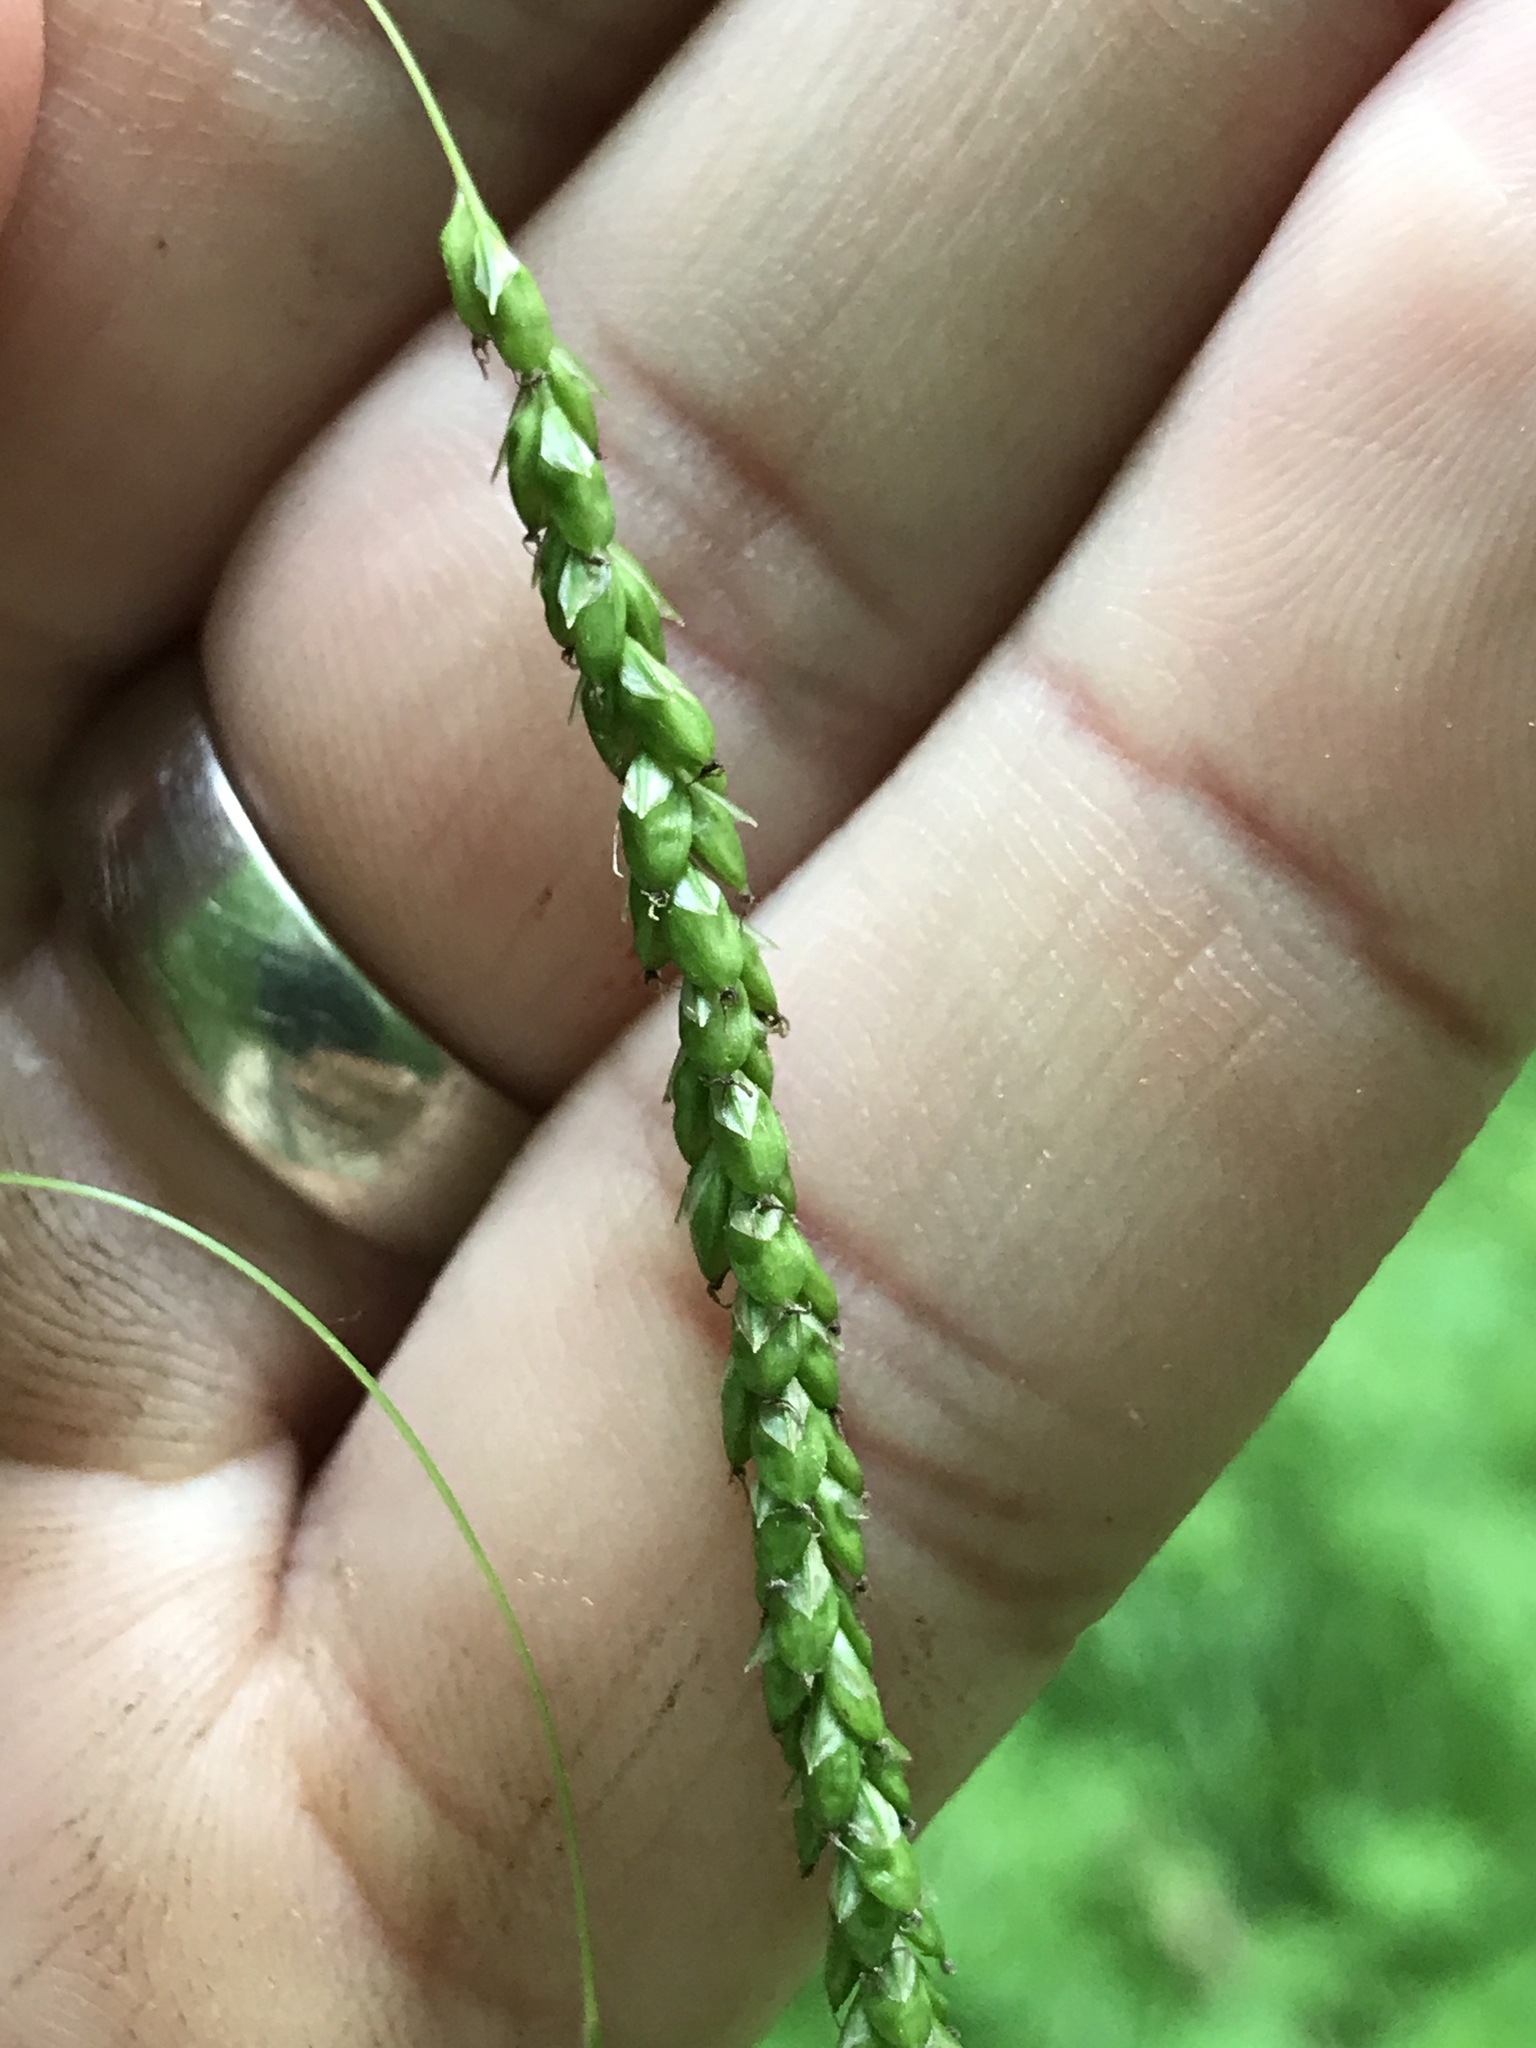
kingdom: Plantae
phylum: Tracheophyta
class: Liliopsida
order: Poales
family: Cyperaceae
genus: Carex
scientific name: Carex gracillima
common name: Graceful sedge
